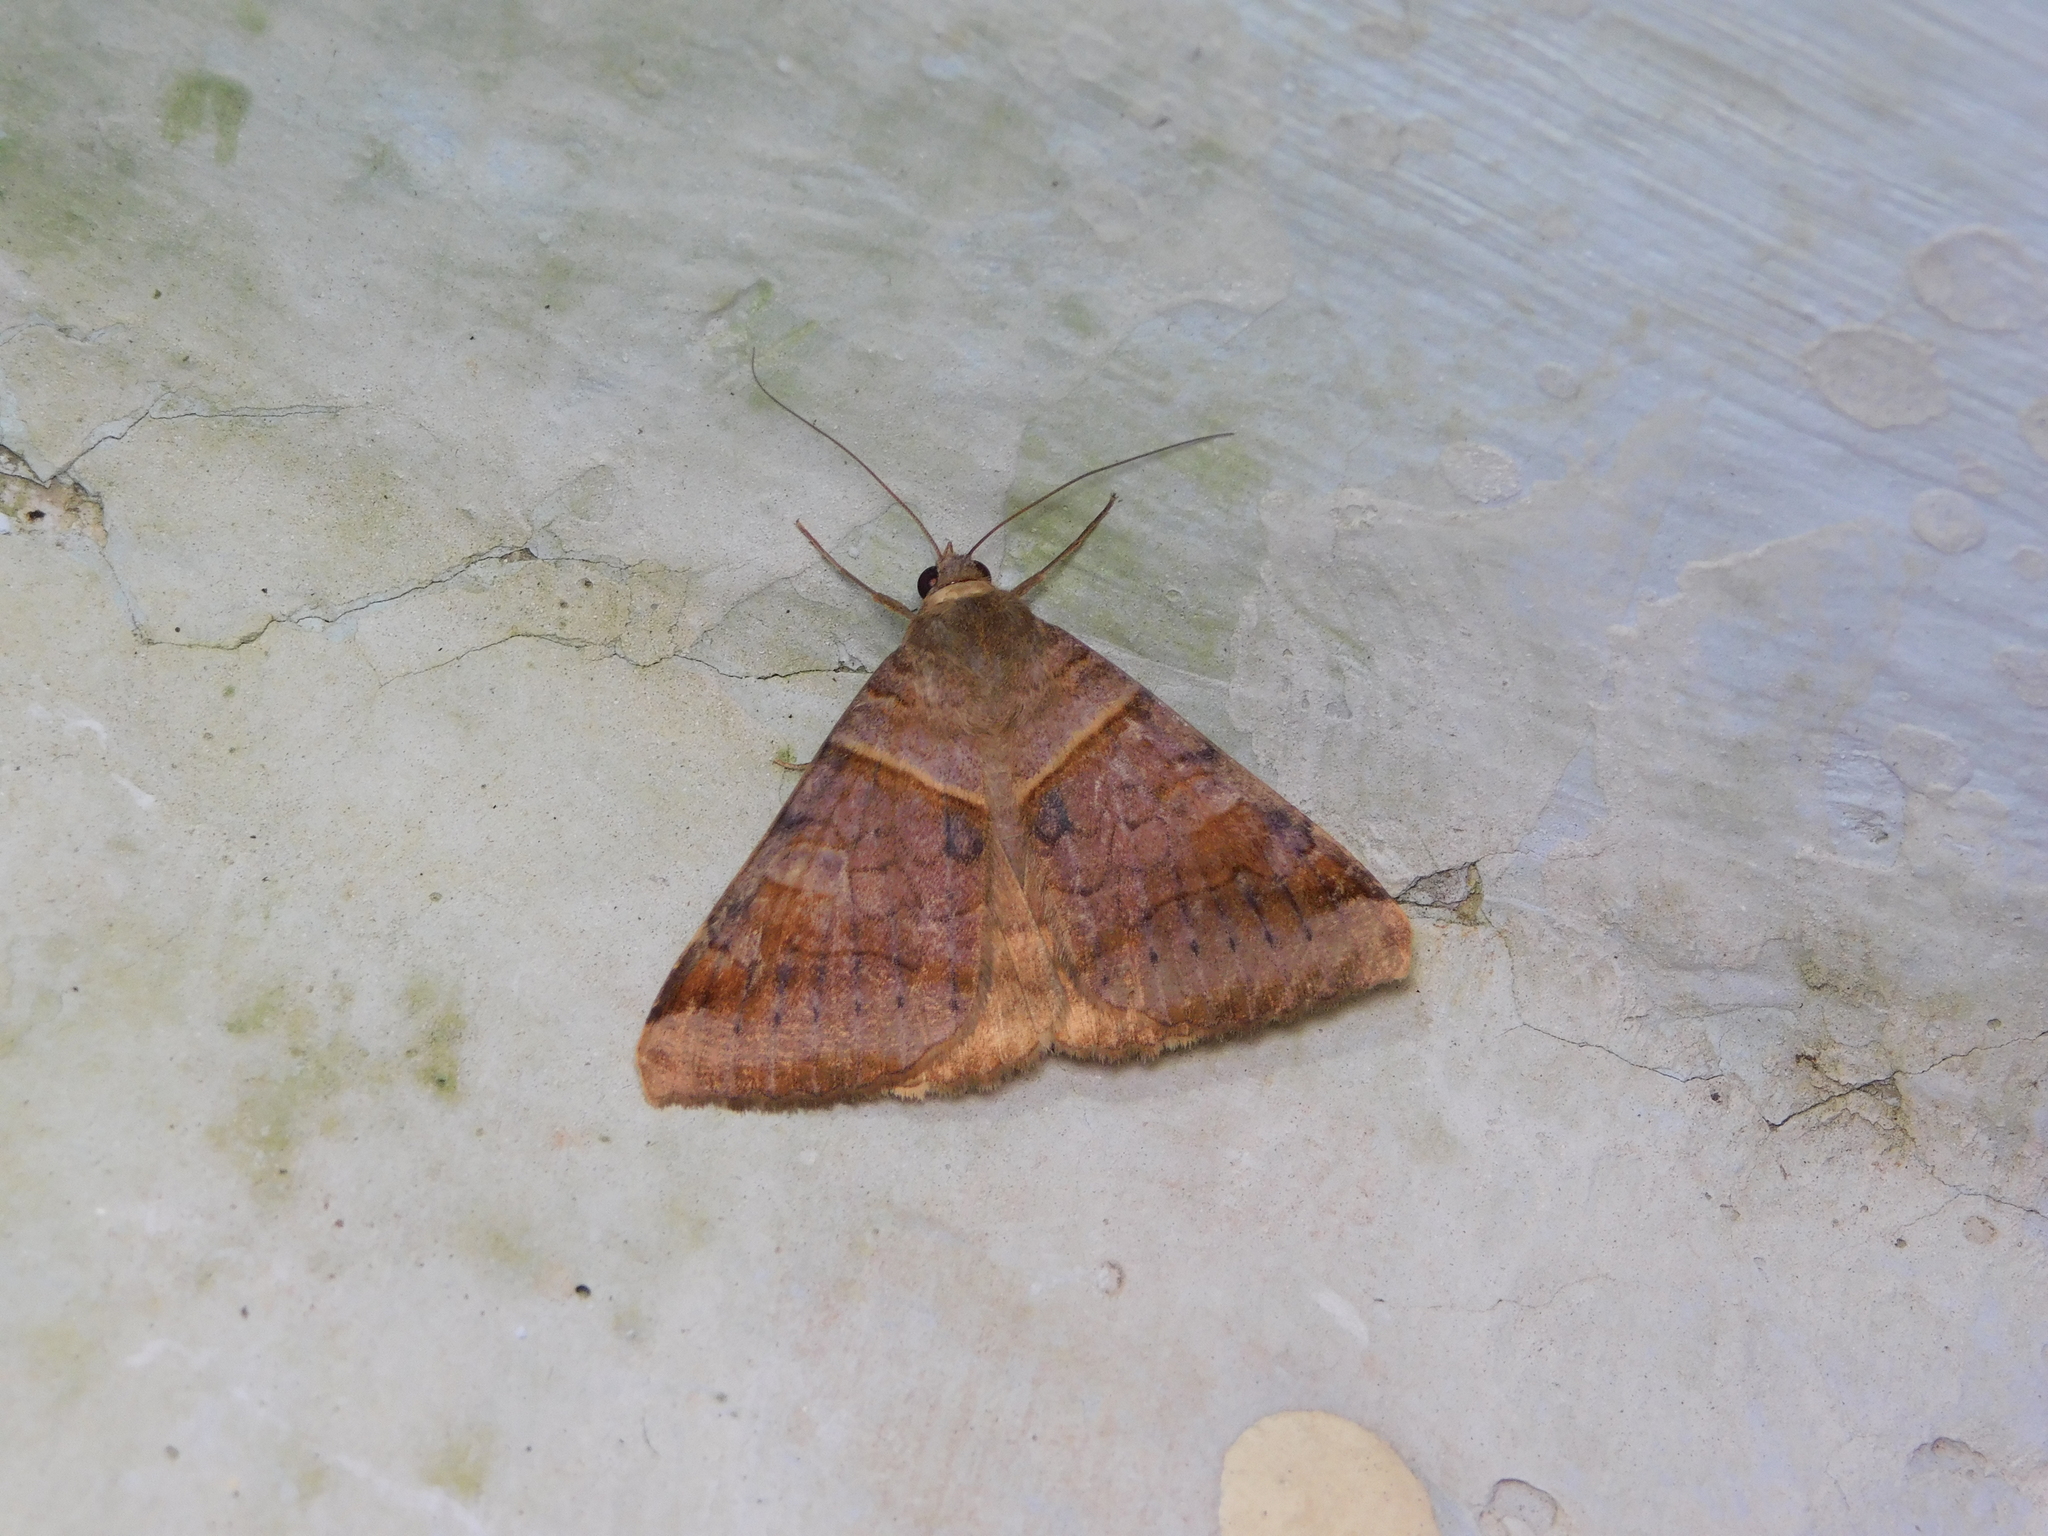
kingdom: Animalia
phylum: Arthropoda
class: Insecta
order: Lepidoptera
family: Erebidae
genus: Mocis
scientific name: Mocis undata
